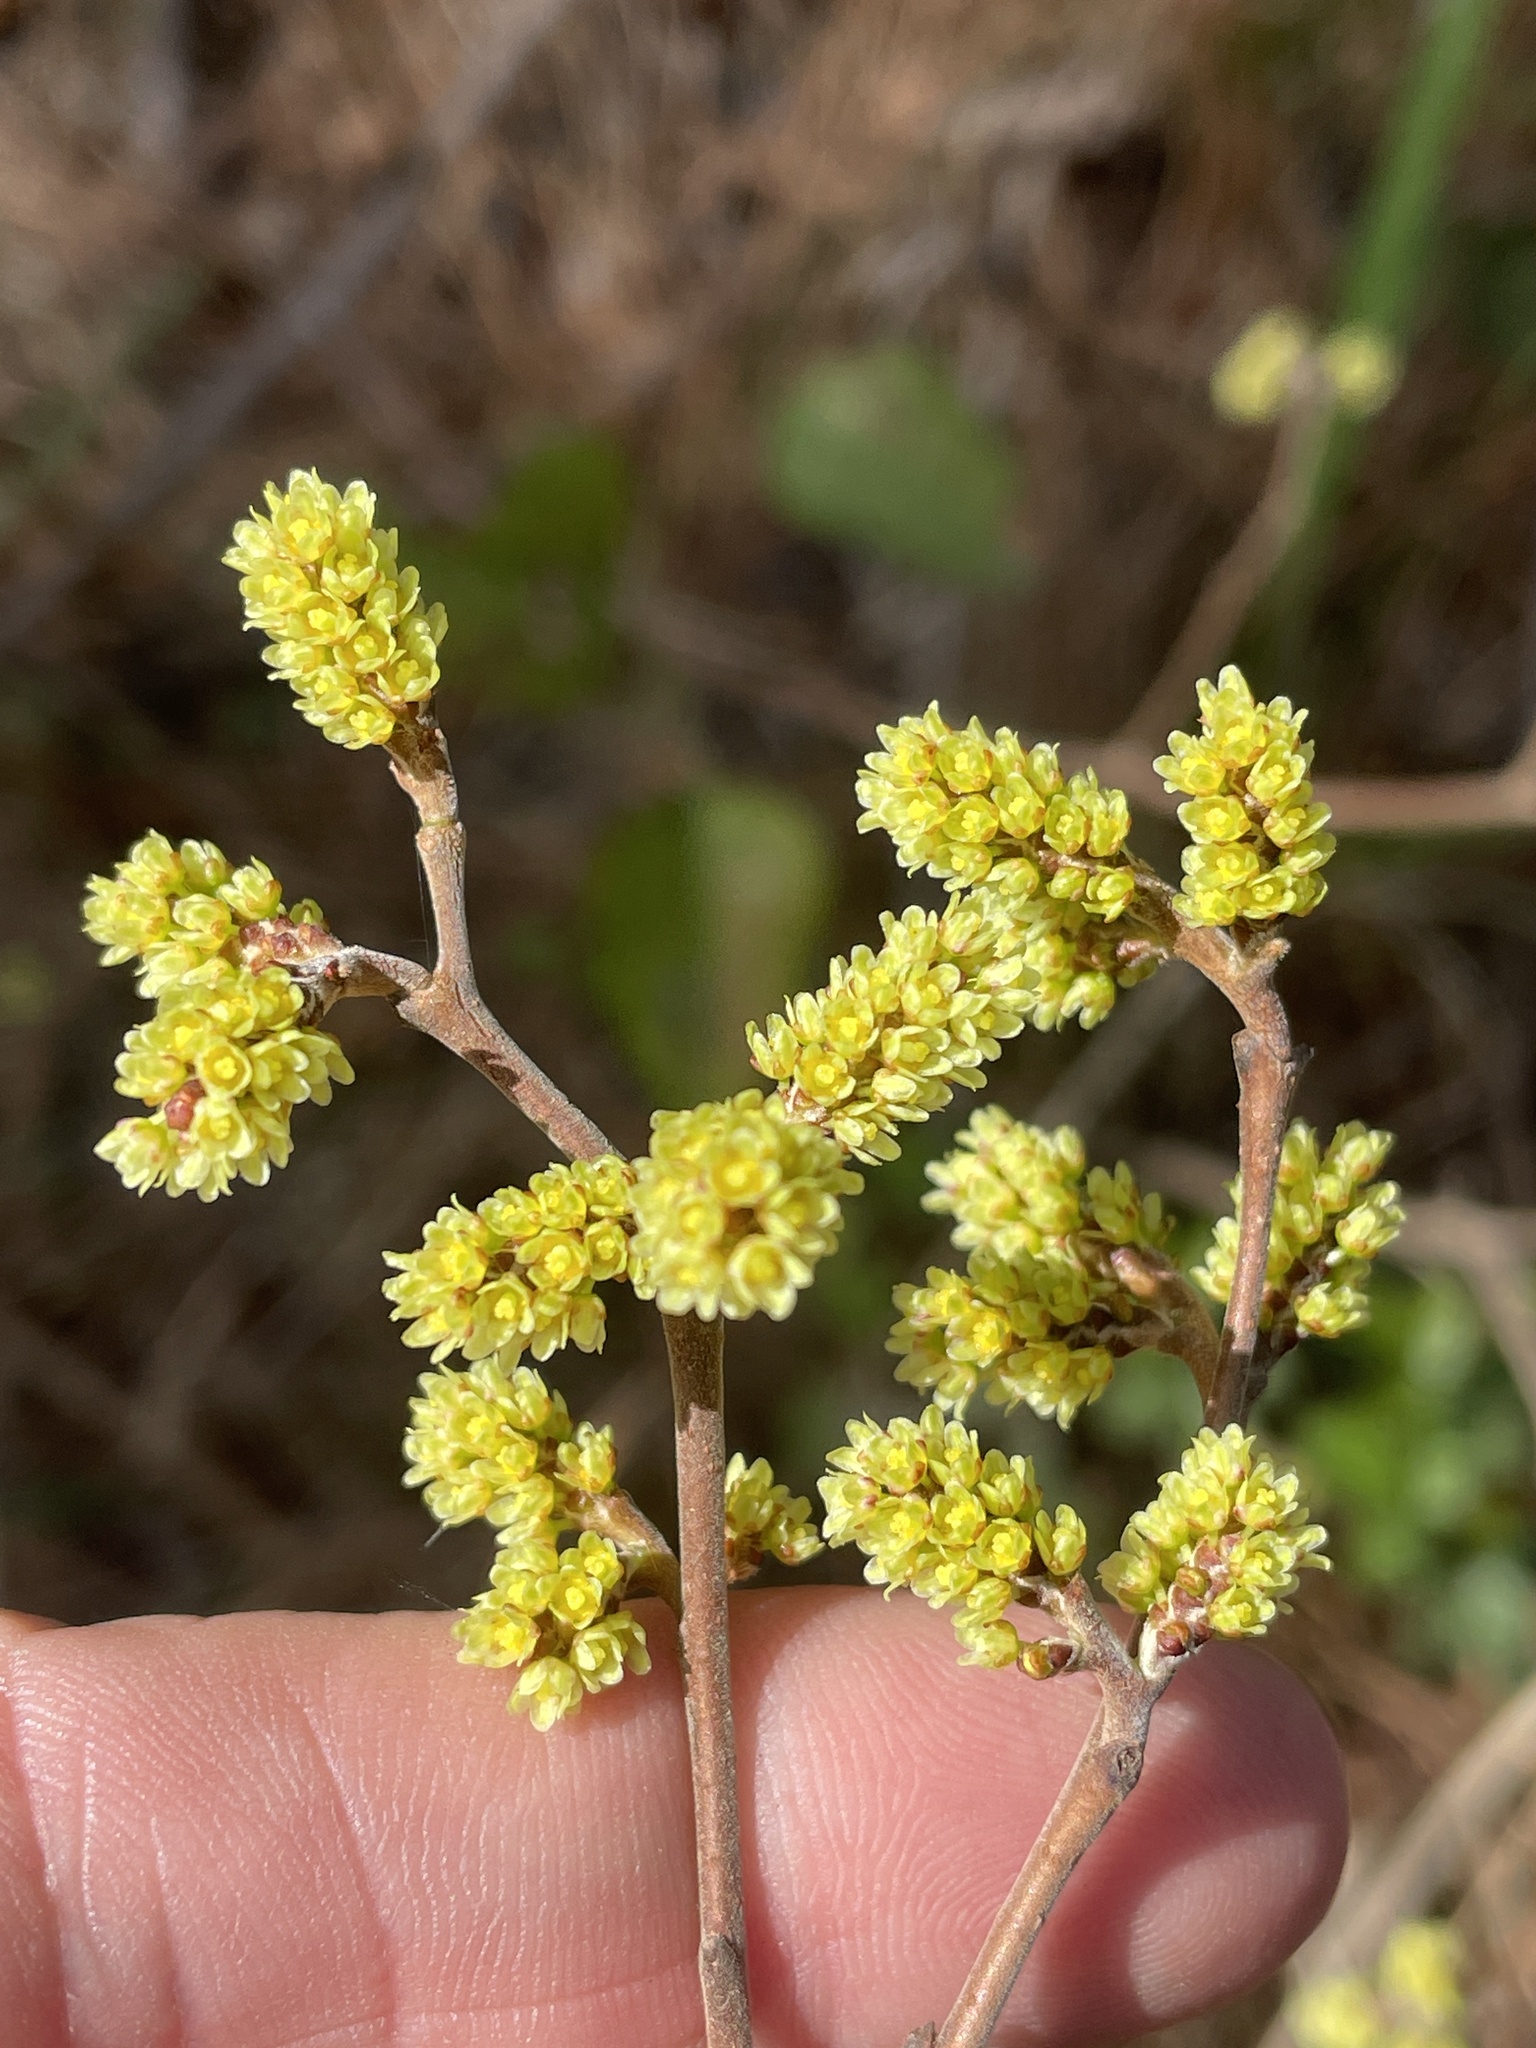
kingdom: Plantae
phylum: Tracheophyta
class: Magnoliopsida
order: Sapindales
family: Anacardiaceae
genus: Rhus
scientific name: Rhus aromatica
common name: Aromatic sumac
